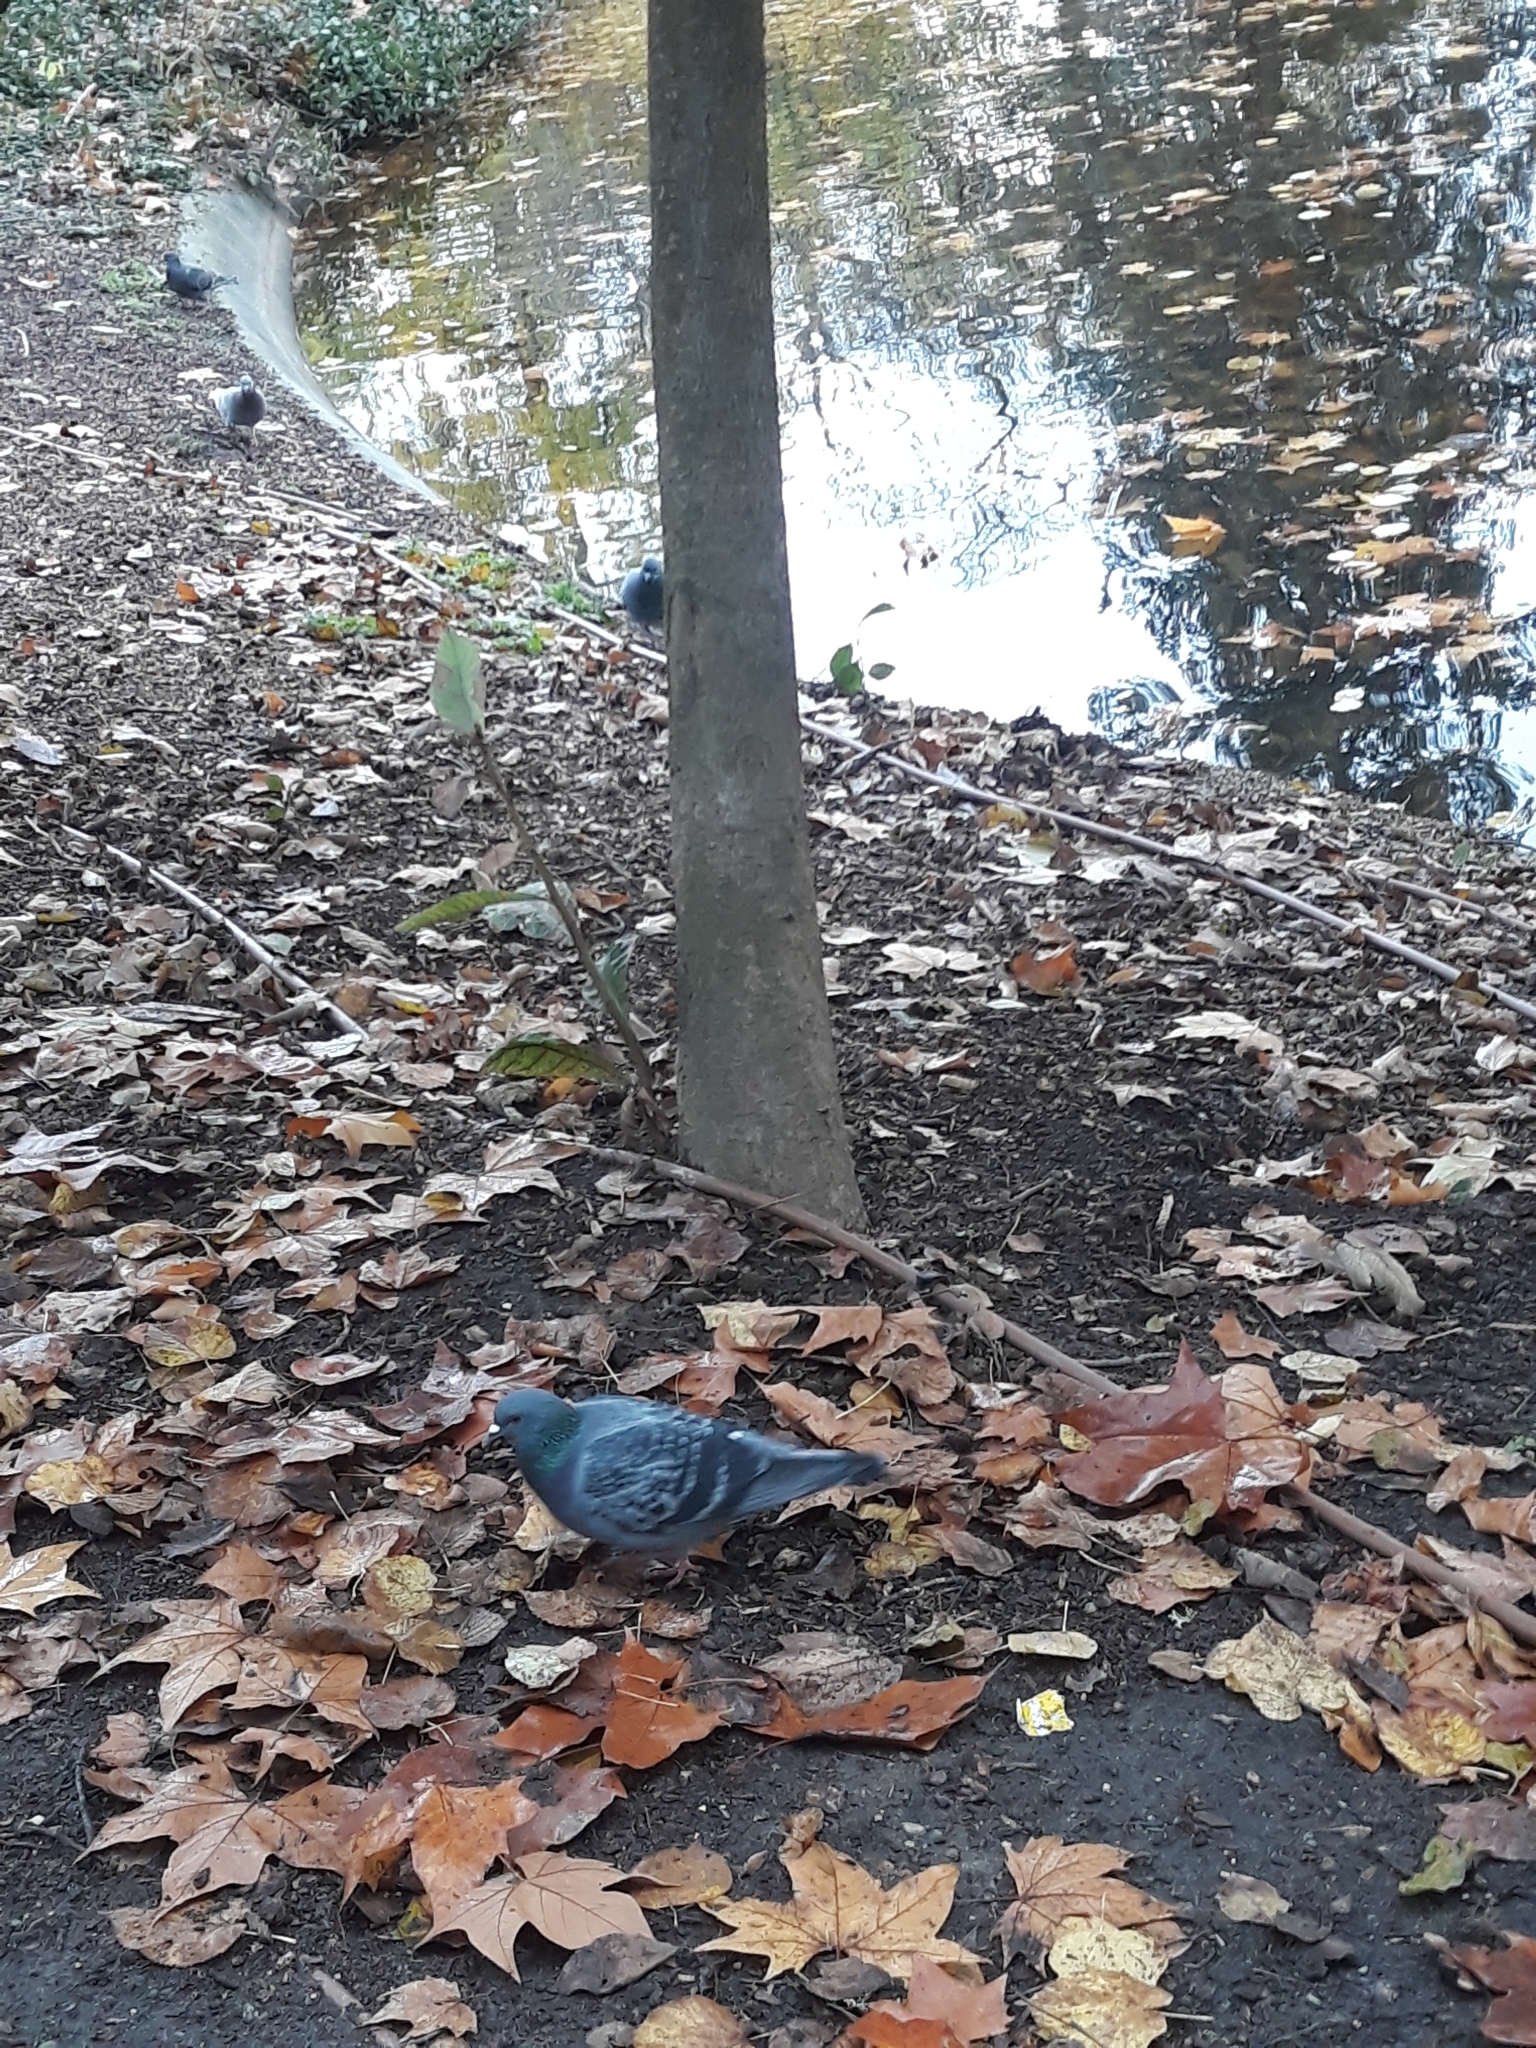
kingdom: Animalia
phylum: Chordata
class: Aves
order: Columbiformes
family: Columbidae
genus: Columba
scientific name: Columba livia
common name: Rock pigeon
